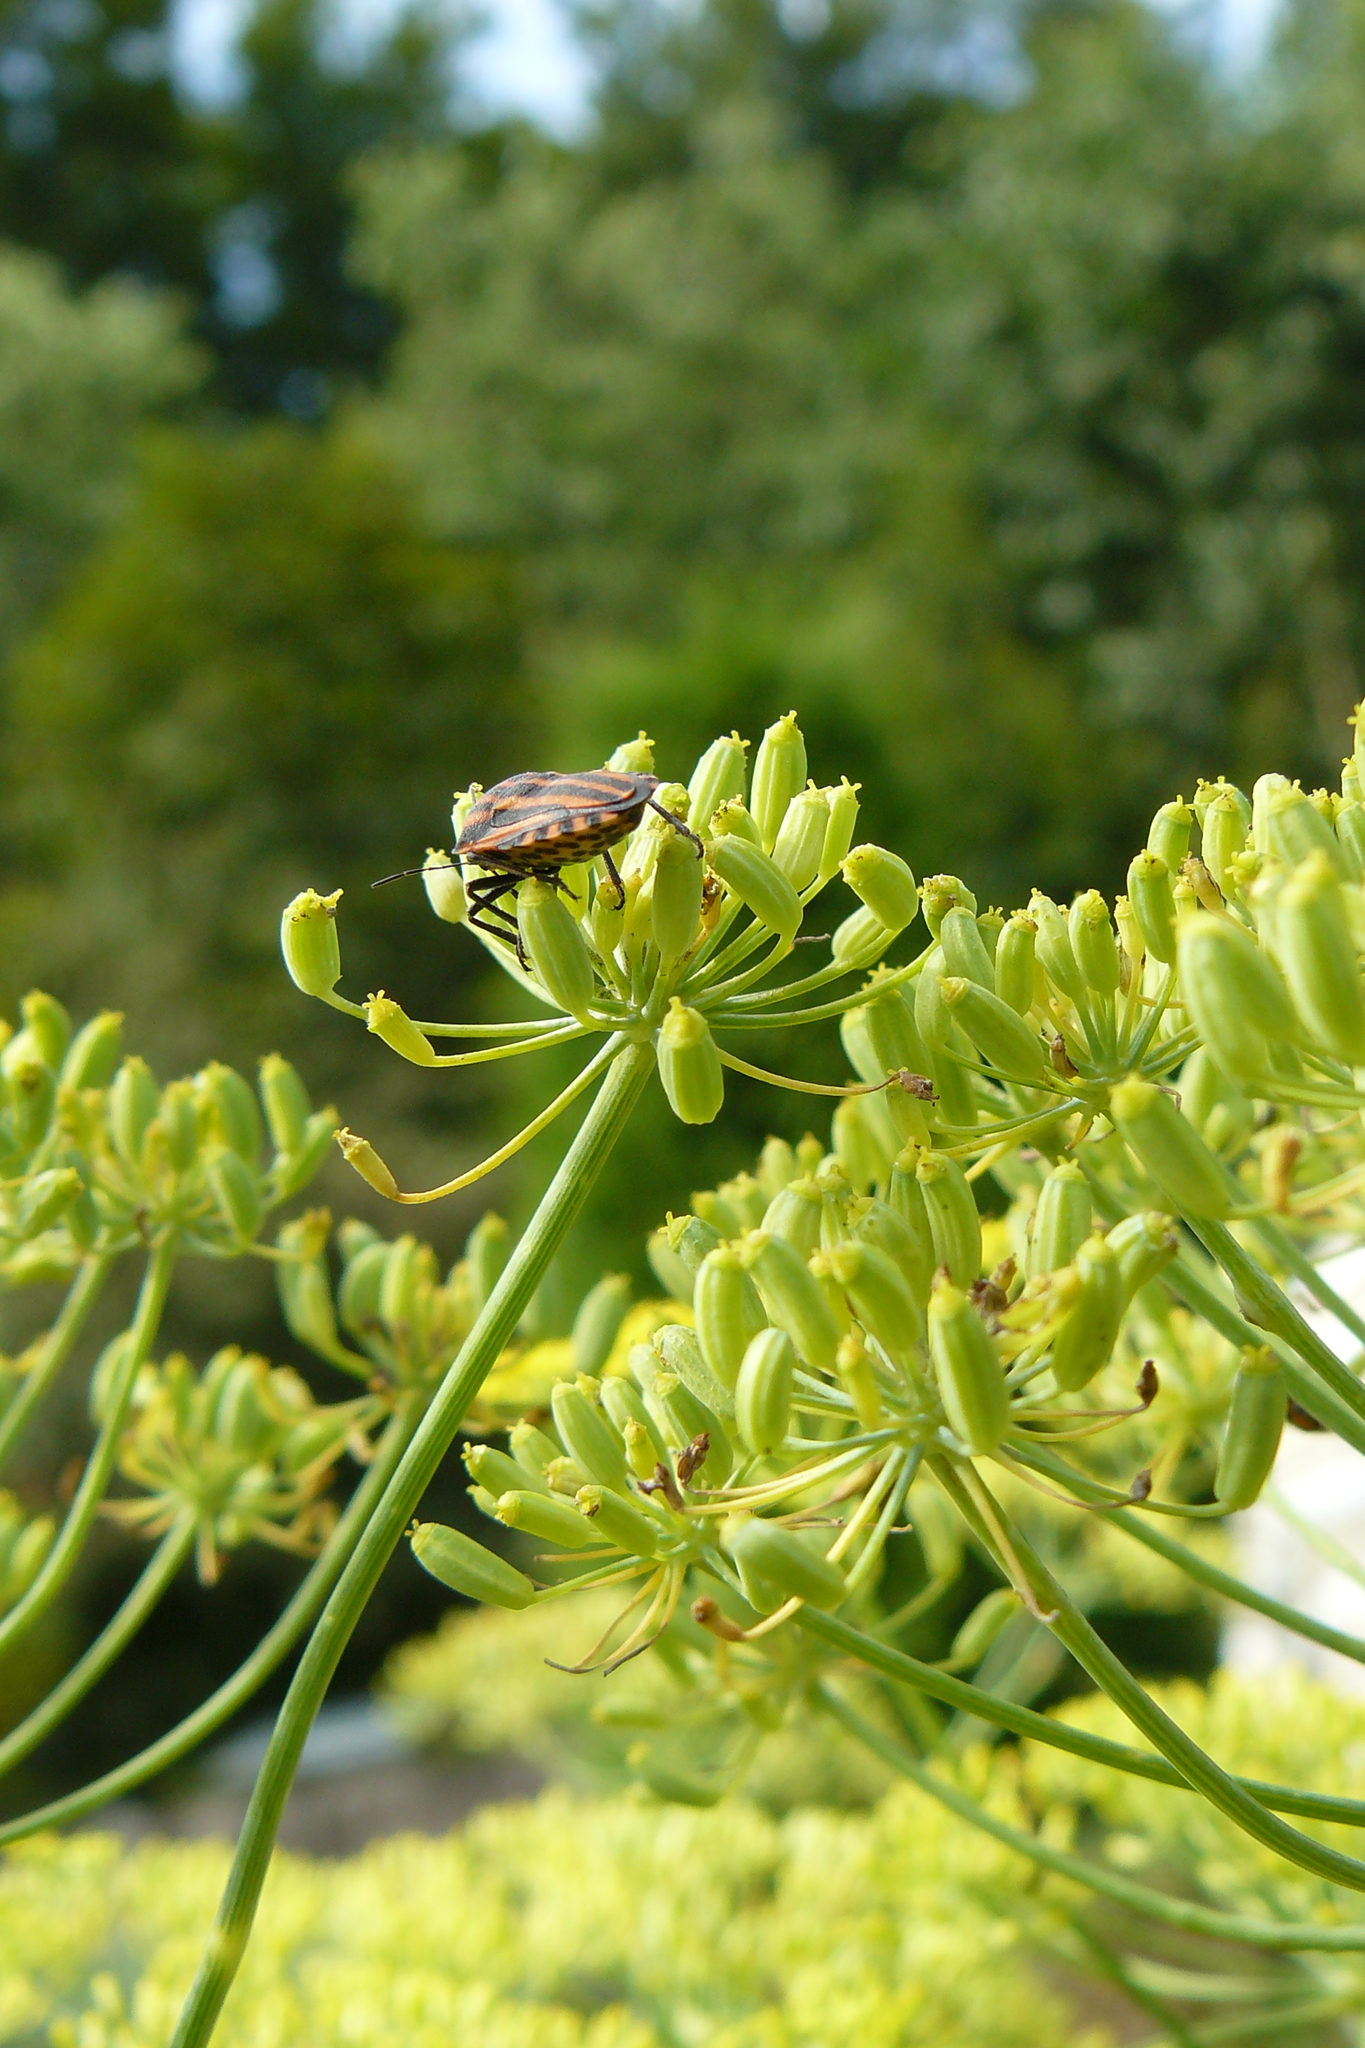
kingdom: Animalia
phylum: Arthropoda
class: Insecta
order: Hemiptera
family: Pentatomidae
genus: Graphosoma
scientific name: Graphosoma italicum
